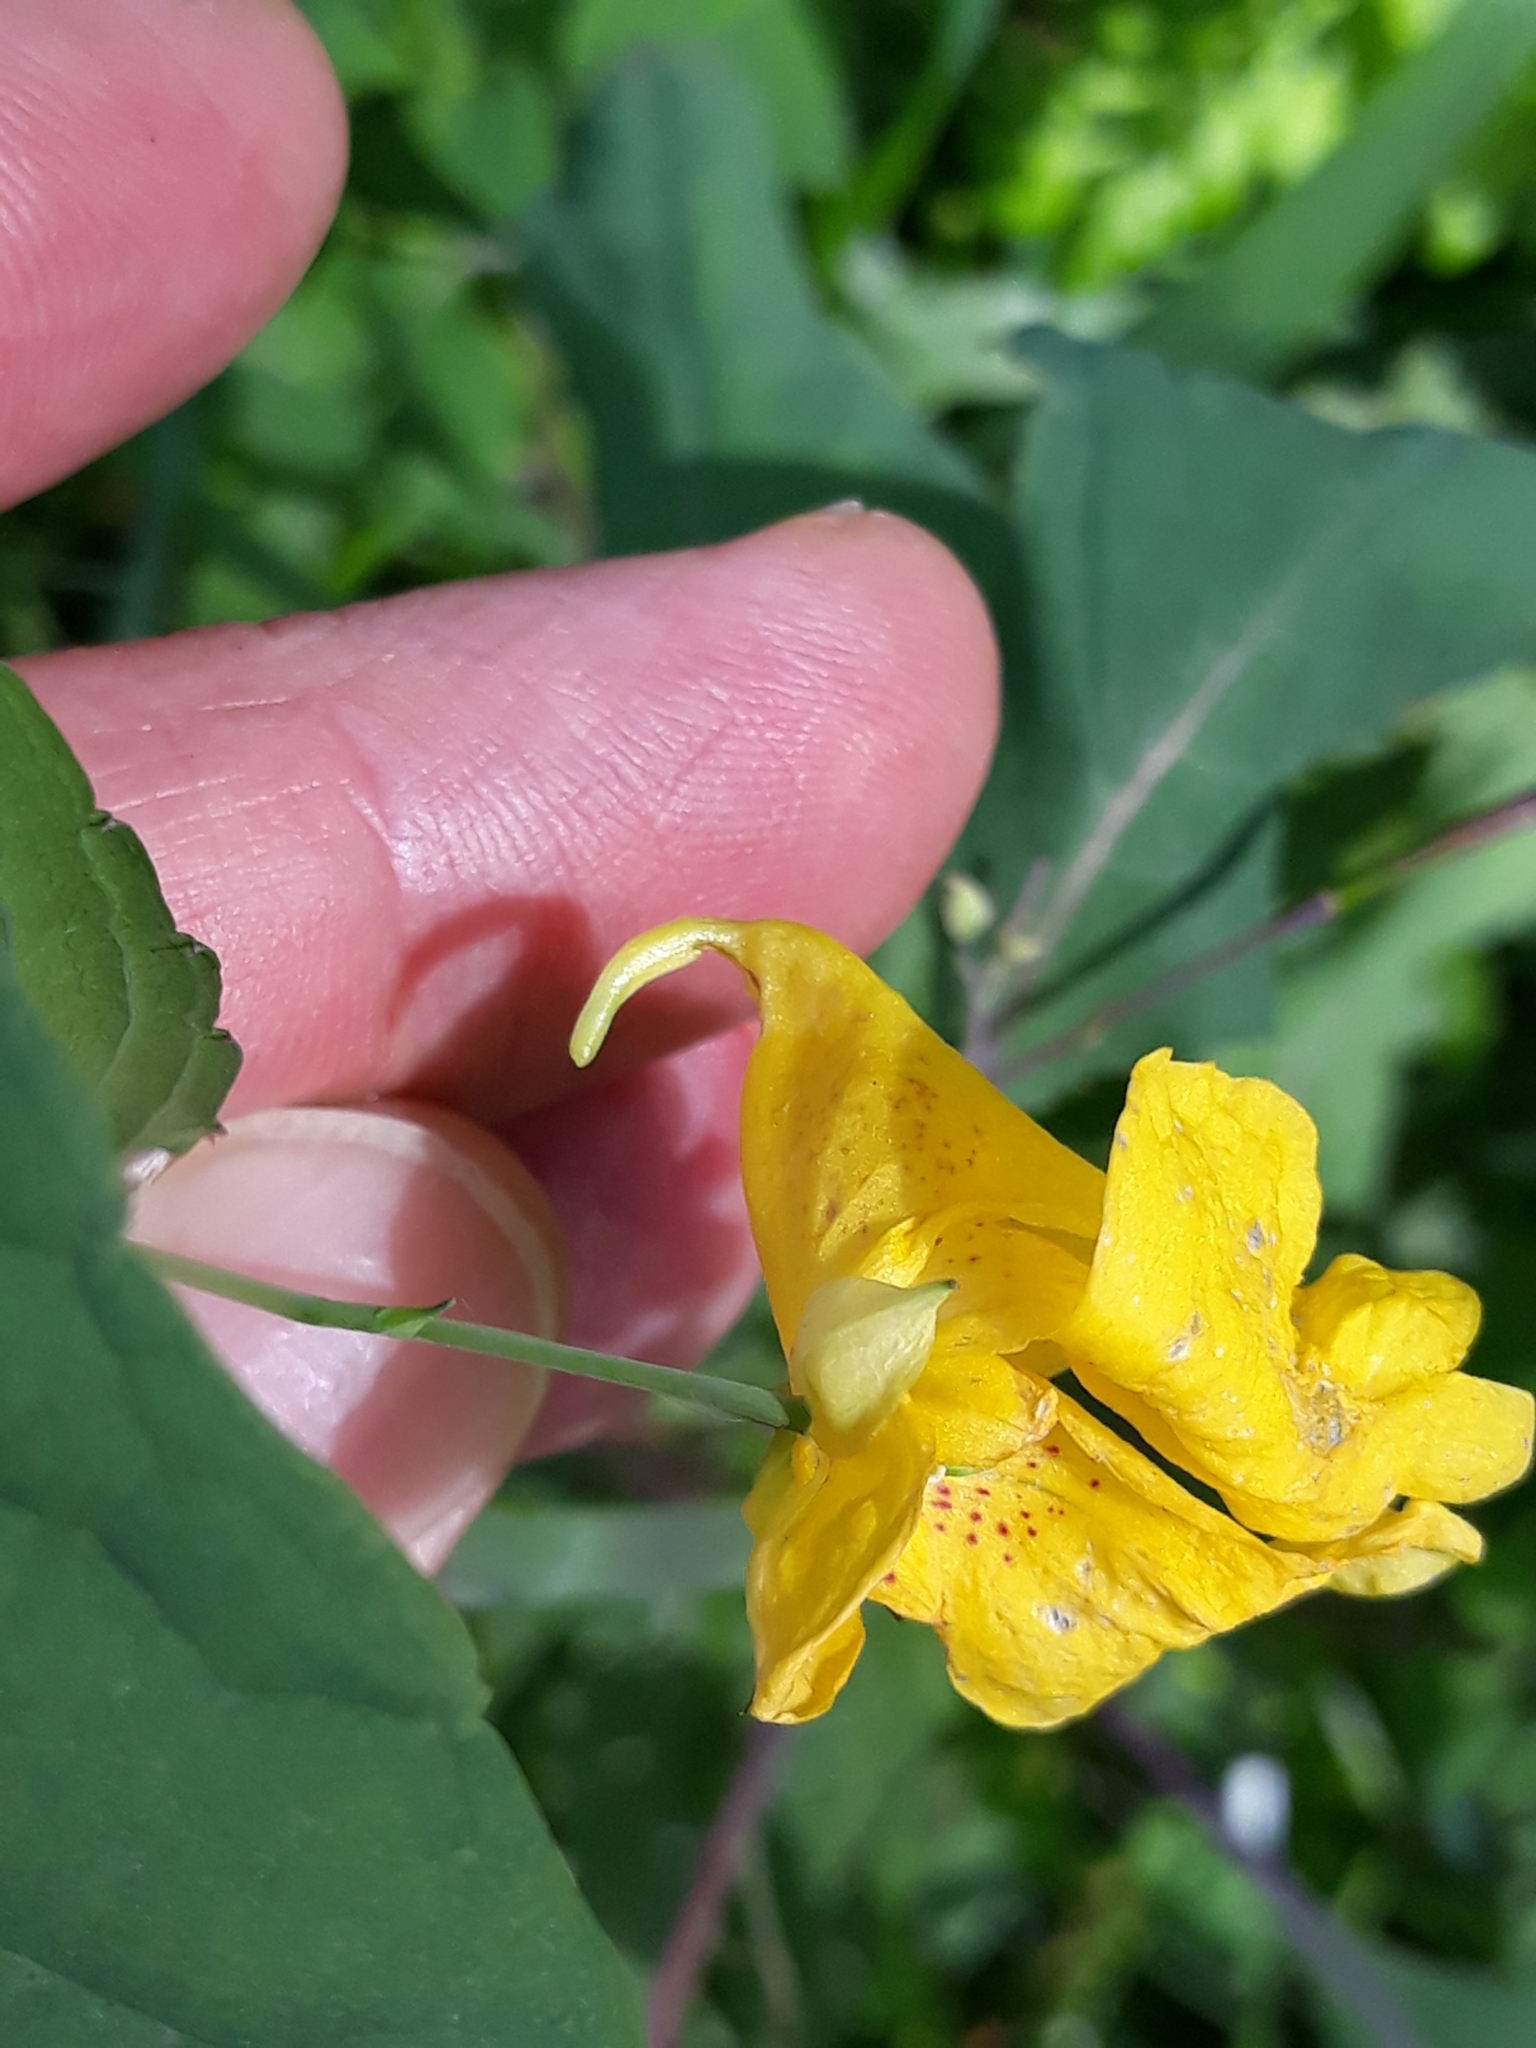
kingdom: Plantae
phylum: Tracheophyta
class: Magnoliopsida
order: Ericales
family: Balsaminaceae
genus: Impatiens
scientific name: Impatiens noli-tangere
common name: Touch-me-not balsam
